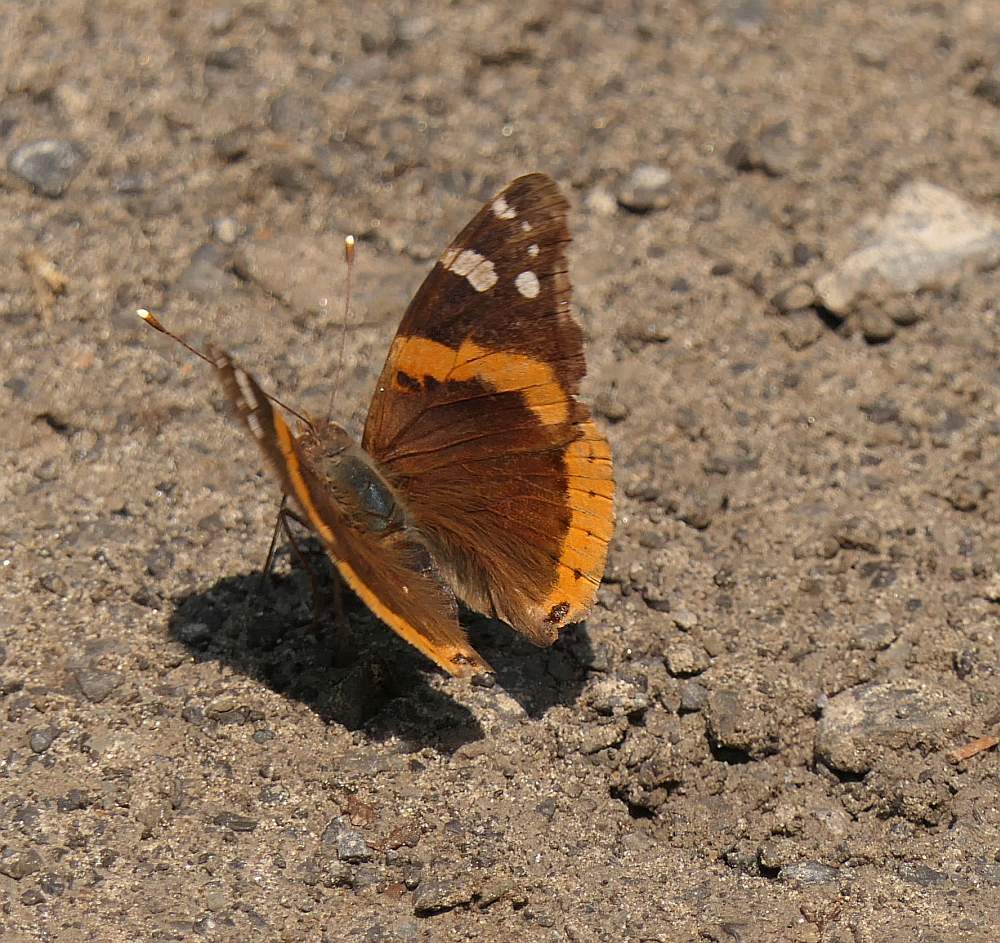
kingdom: Animalia
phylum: Arthropoda
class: Insecta
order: Lepidoptera
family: Nymphalidae
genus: Vanessa
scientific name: Vanessa atalanta
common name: Red admiral
